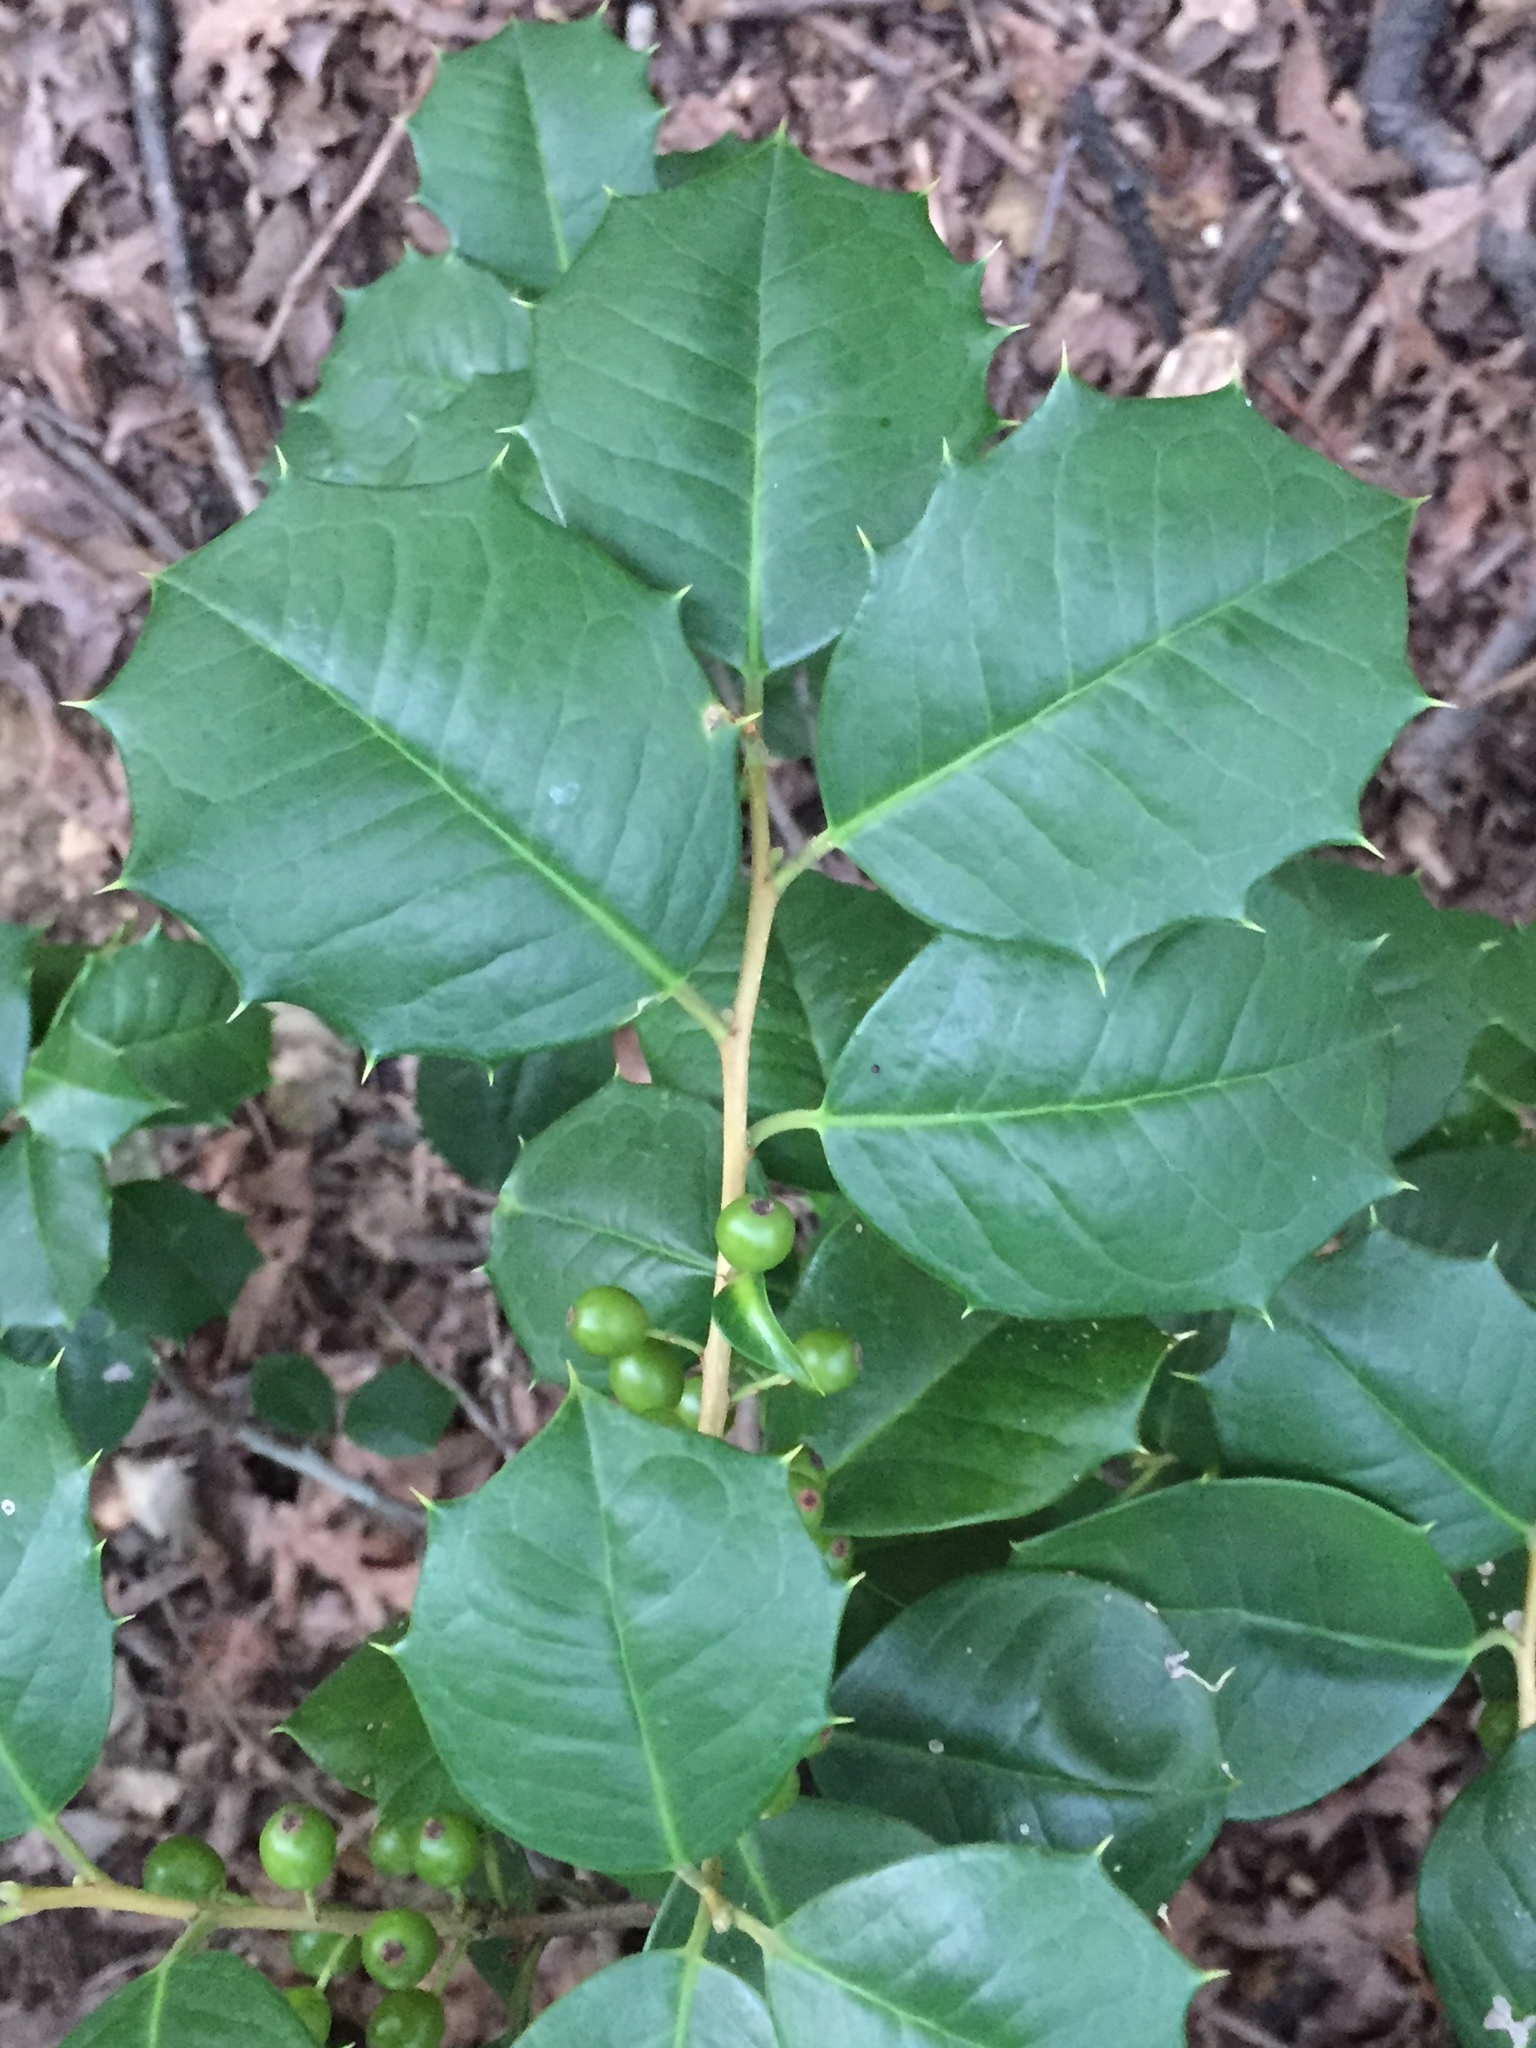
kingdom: Plantae
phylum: Tracheophyta
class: Magnoliopsida
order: Aquifoliales
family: Aquifoliaceae
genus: Ilex
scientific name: Ilex opaca
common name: American holly
